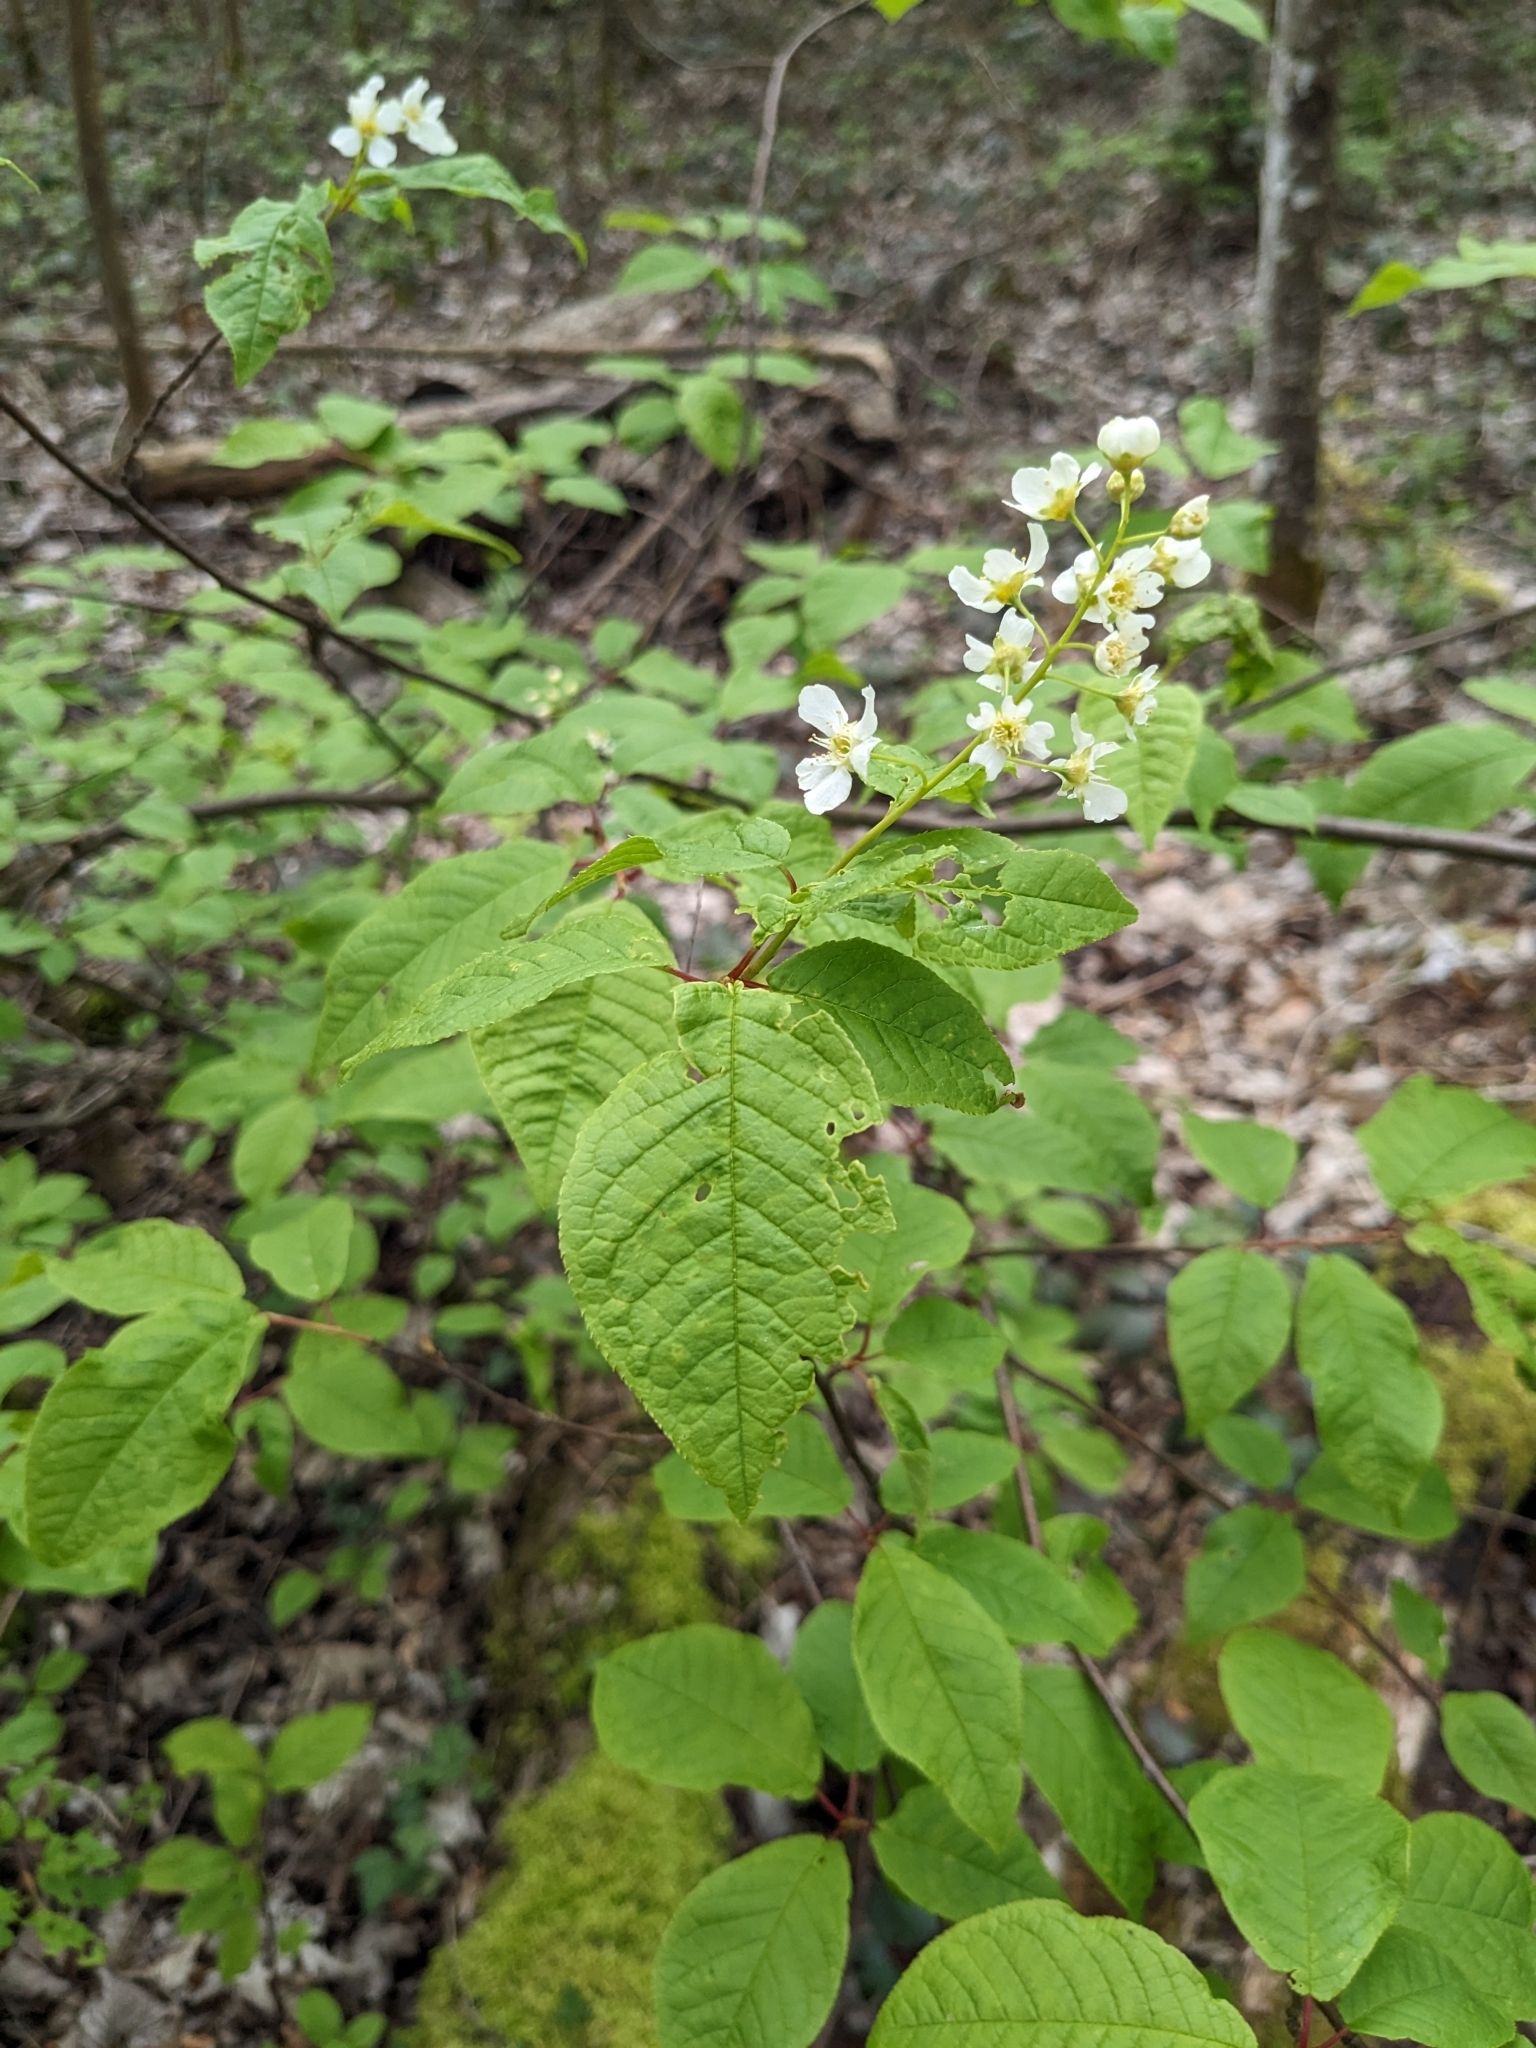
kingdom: Plantae
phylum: Tracheophyta
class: Magnoliopsida
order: Rosales
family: Rosaceae
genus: Prunus
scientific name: Prunus padus
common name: Bird cherry
